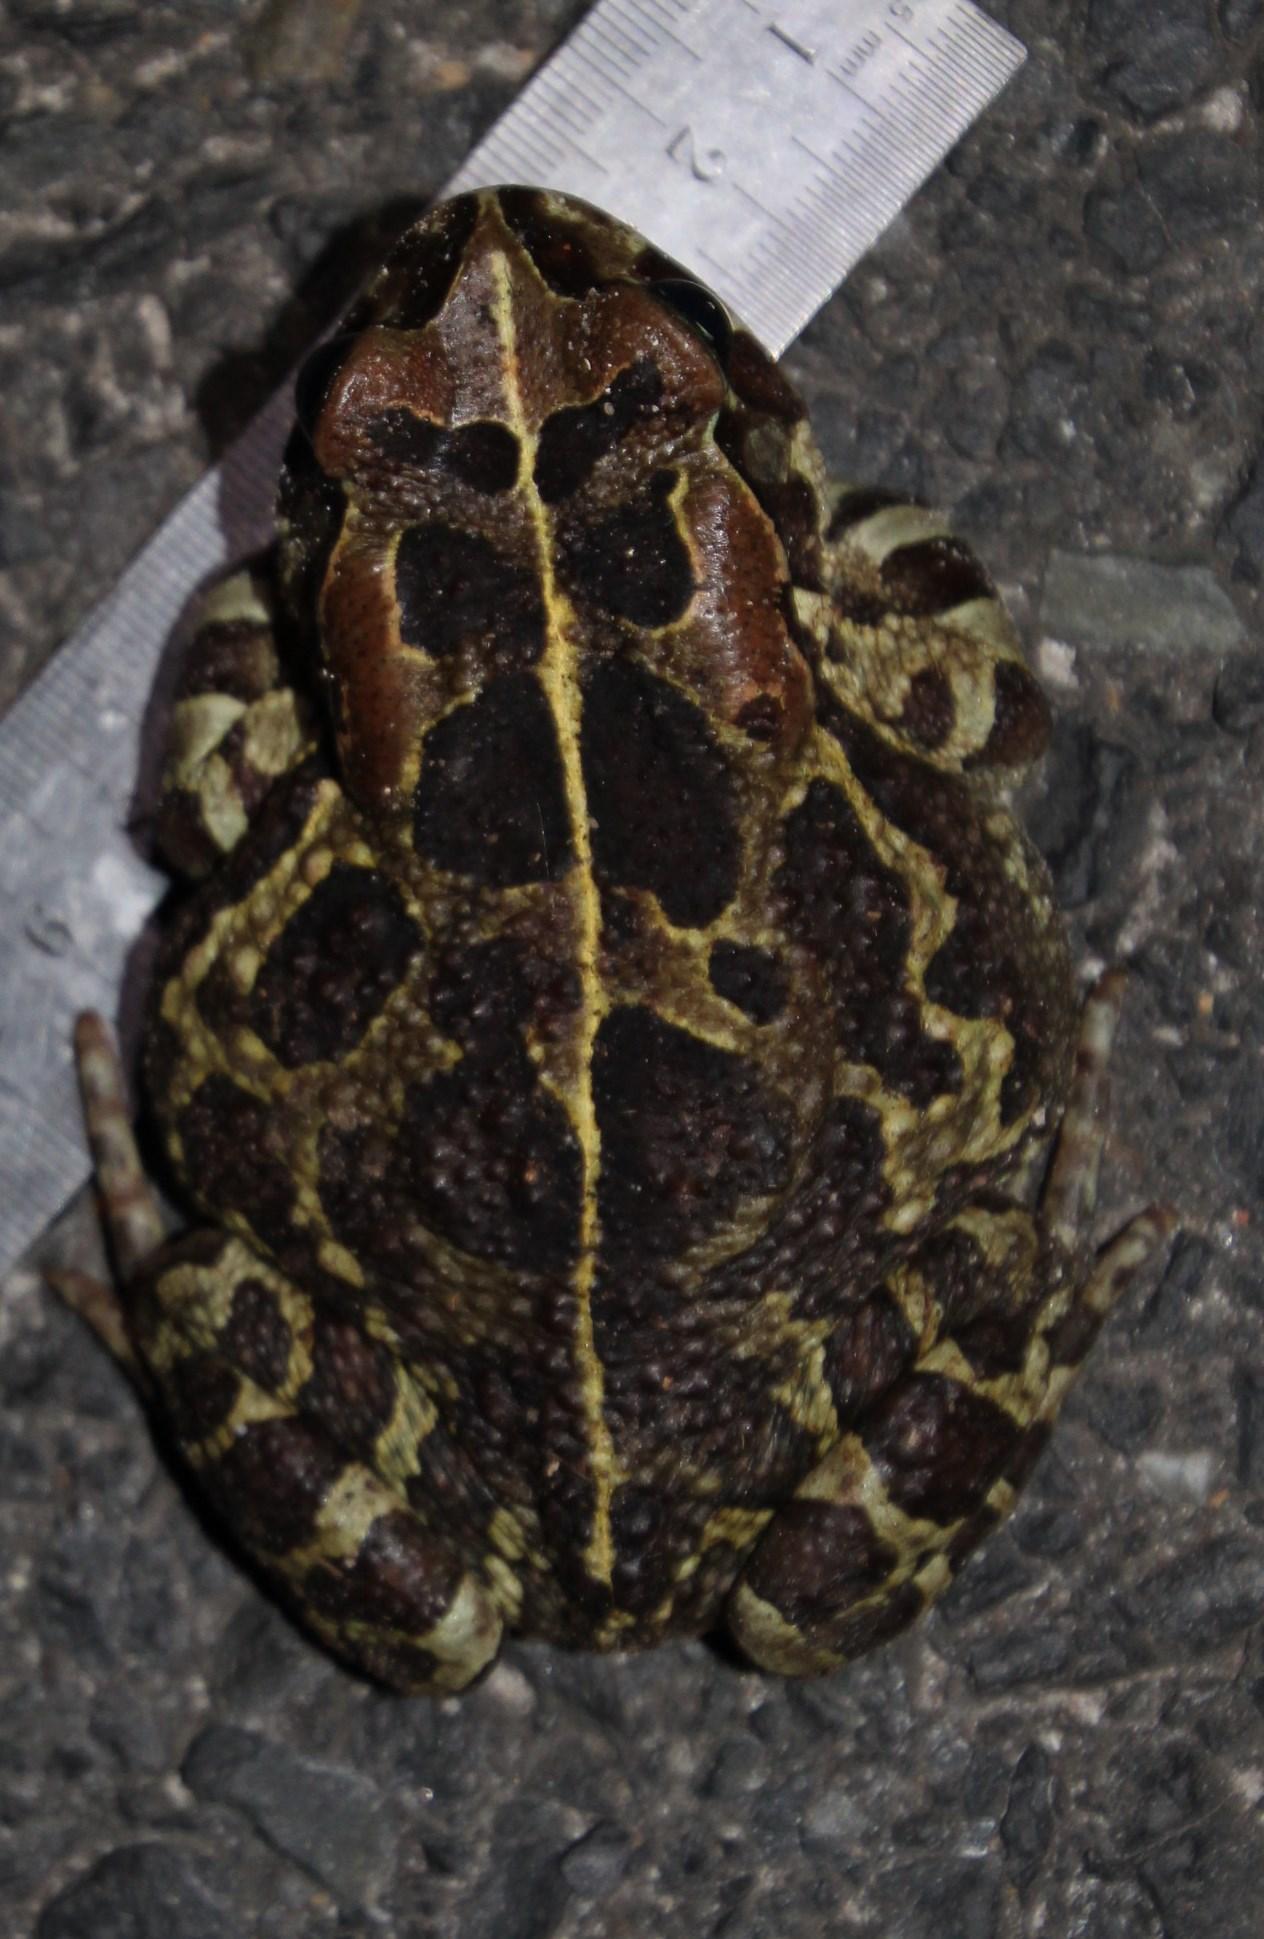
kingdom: Animalia
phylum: Chordata
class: Amphibia
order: Anura
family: Bufonidae
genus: Sclerophrys
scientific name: Sclerophrys pantherina
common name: Panther toad
